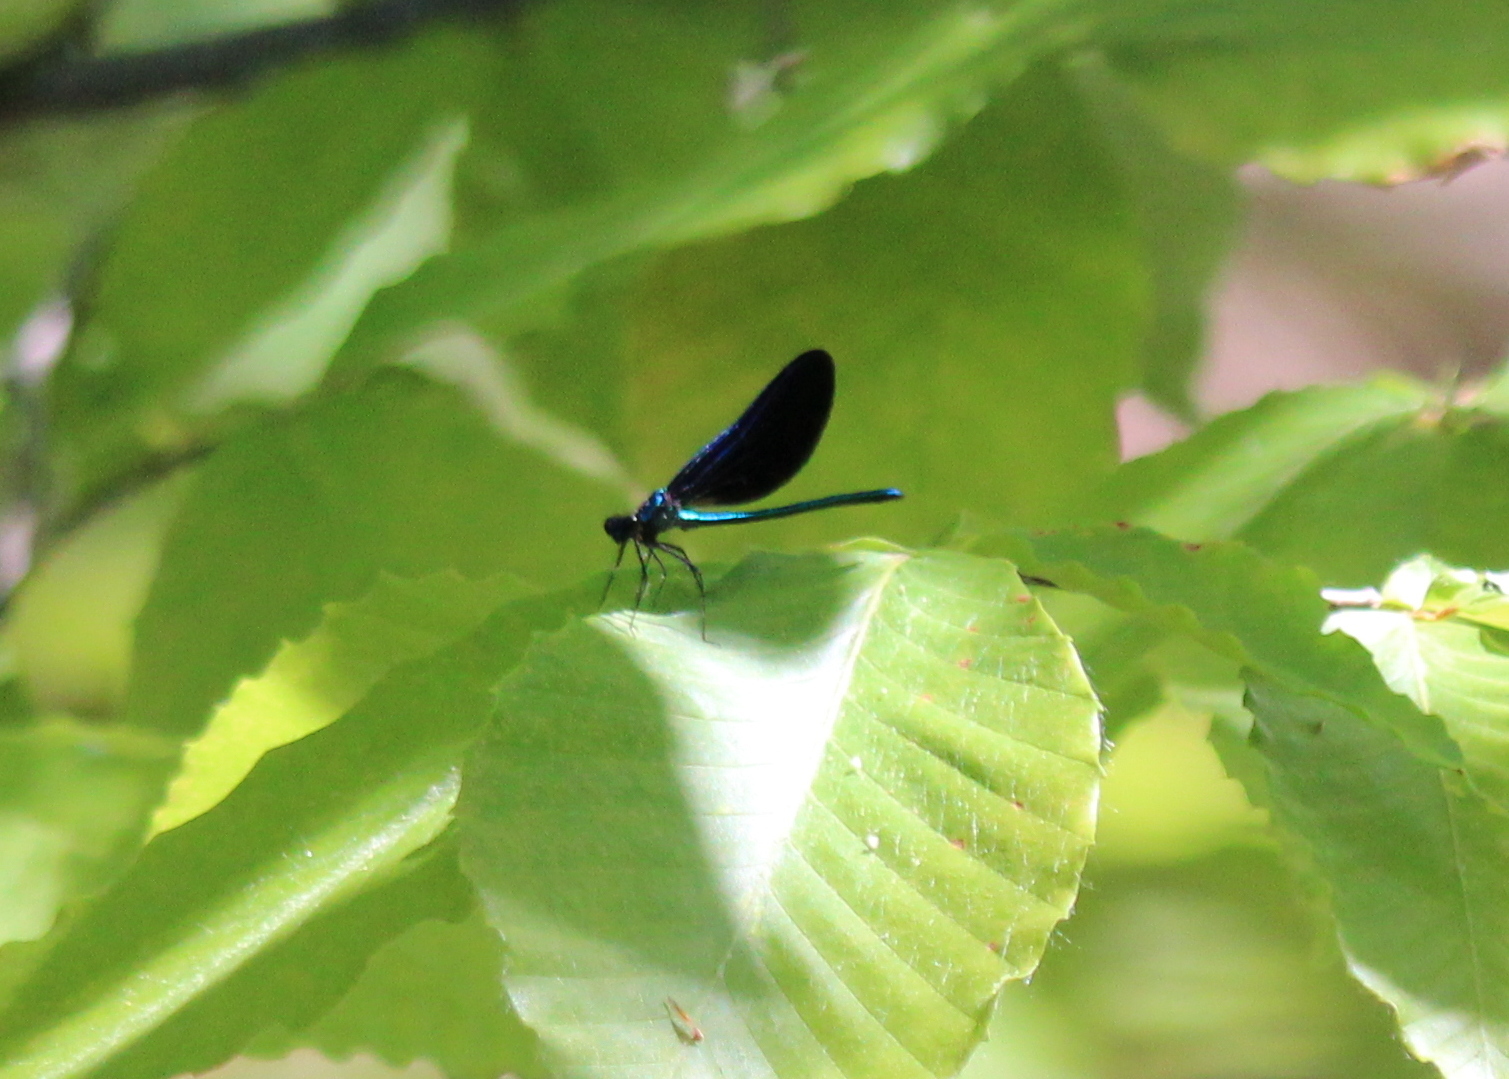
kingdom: Animalia
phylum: Arthropoda
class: Insecta
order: Odonata
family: Calopterygidae
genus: Calopteryx
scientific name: Calopteryx maculata
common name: Ebony jewelwing
